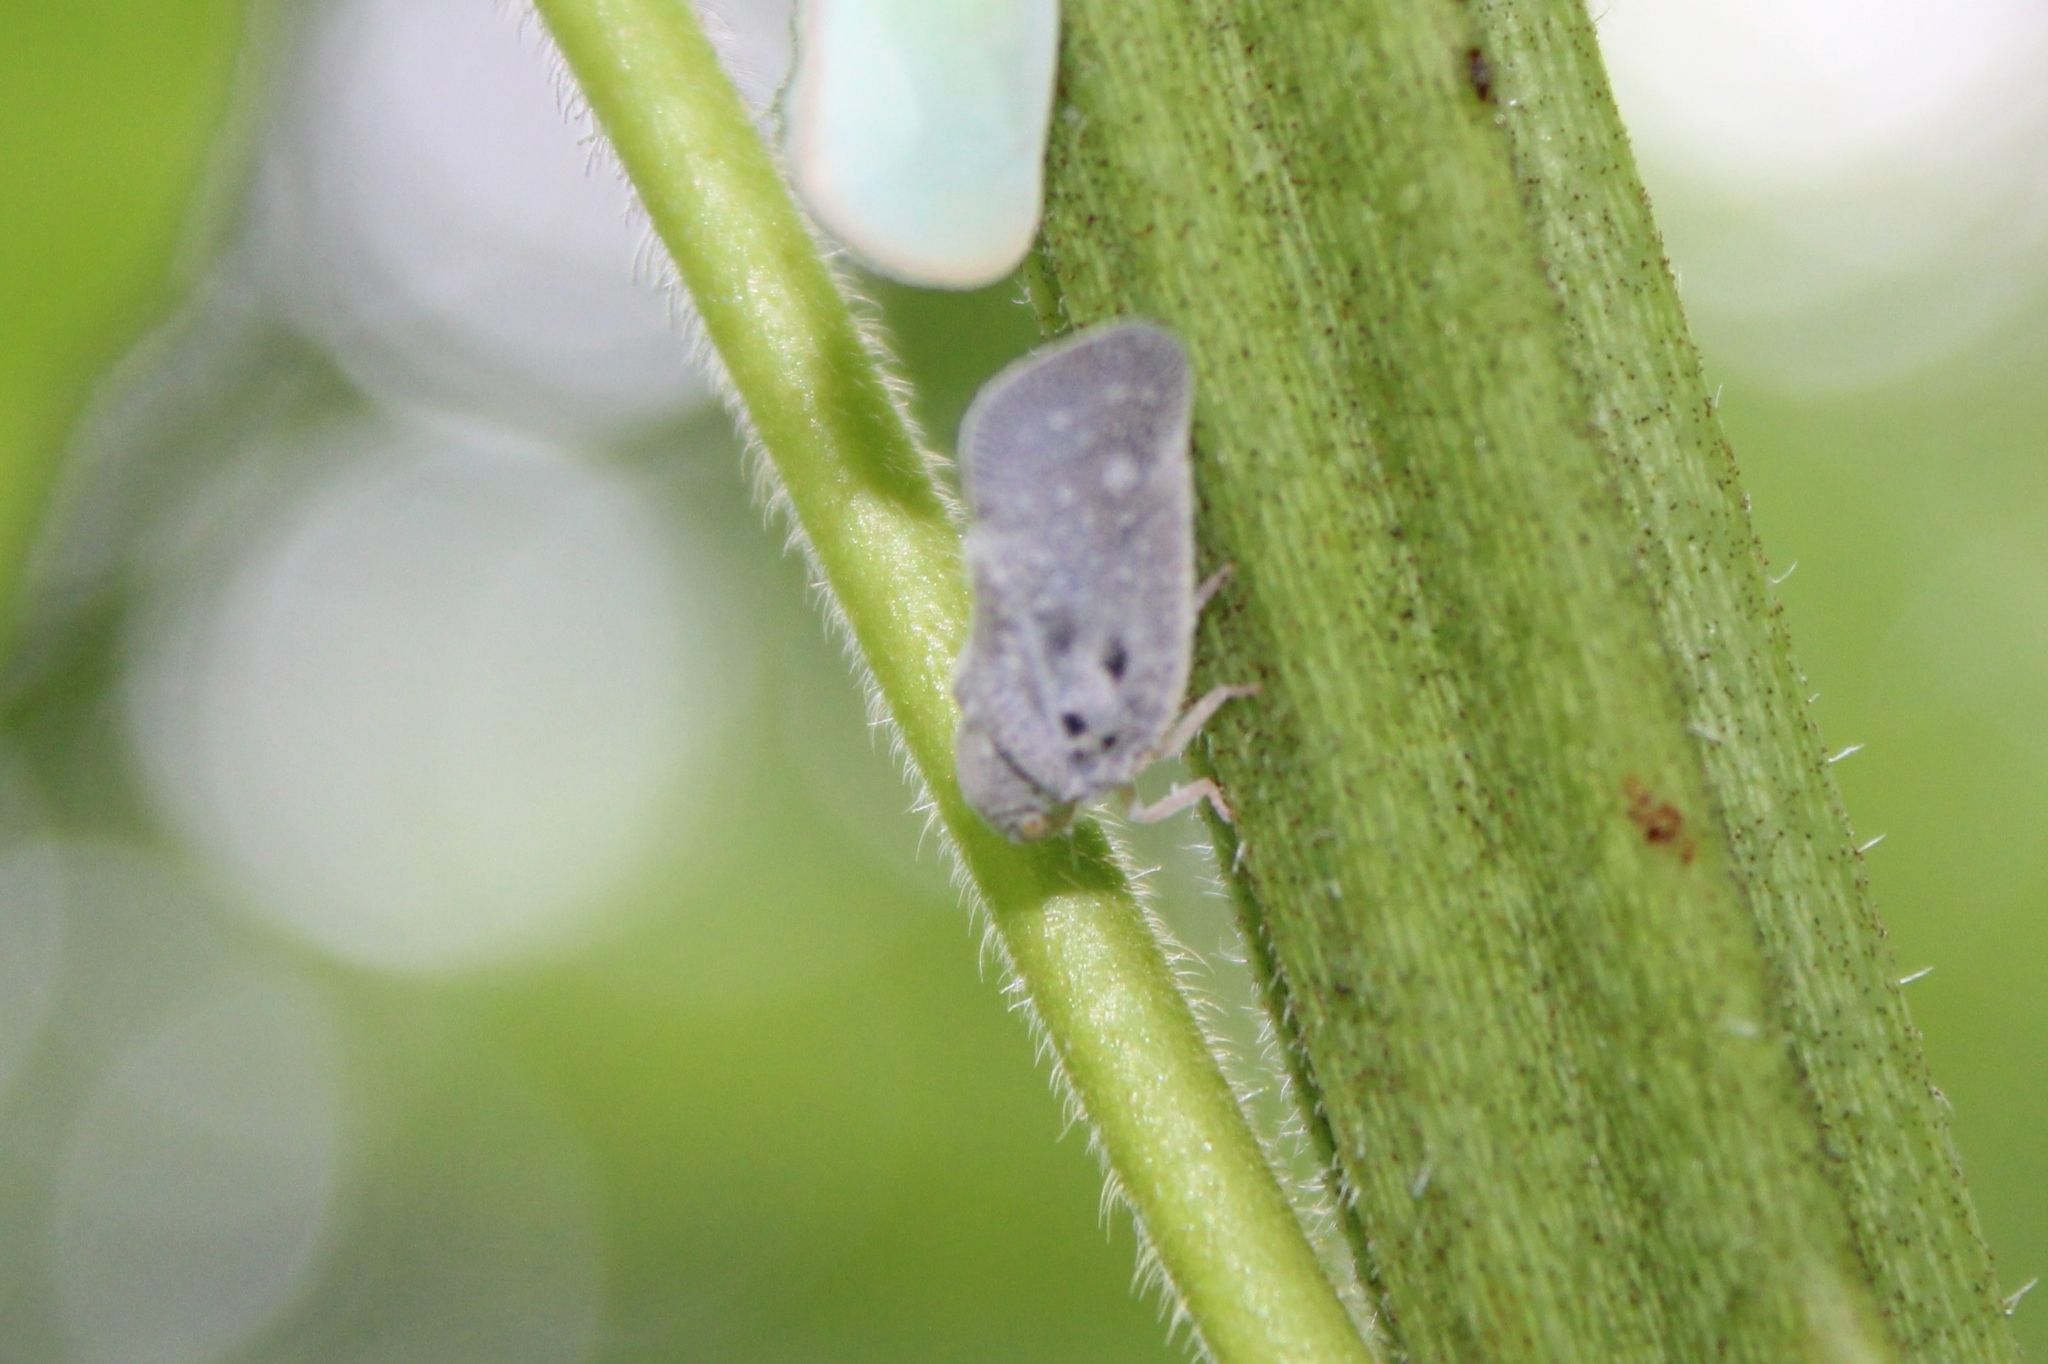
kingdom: Animalia
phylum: Arthropoda
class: Insecta
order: Hemiptera
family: Flatidae
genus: Metcalfa
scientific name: Metcalfa pruinosa
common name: Citrus flatid planthopper
